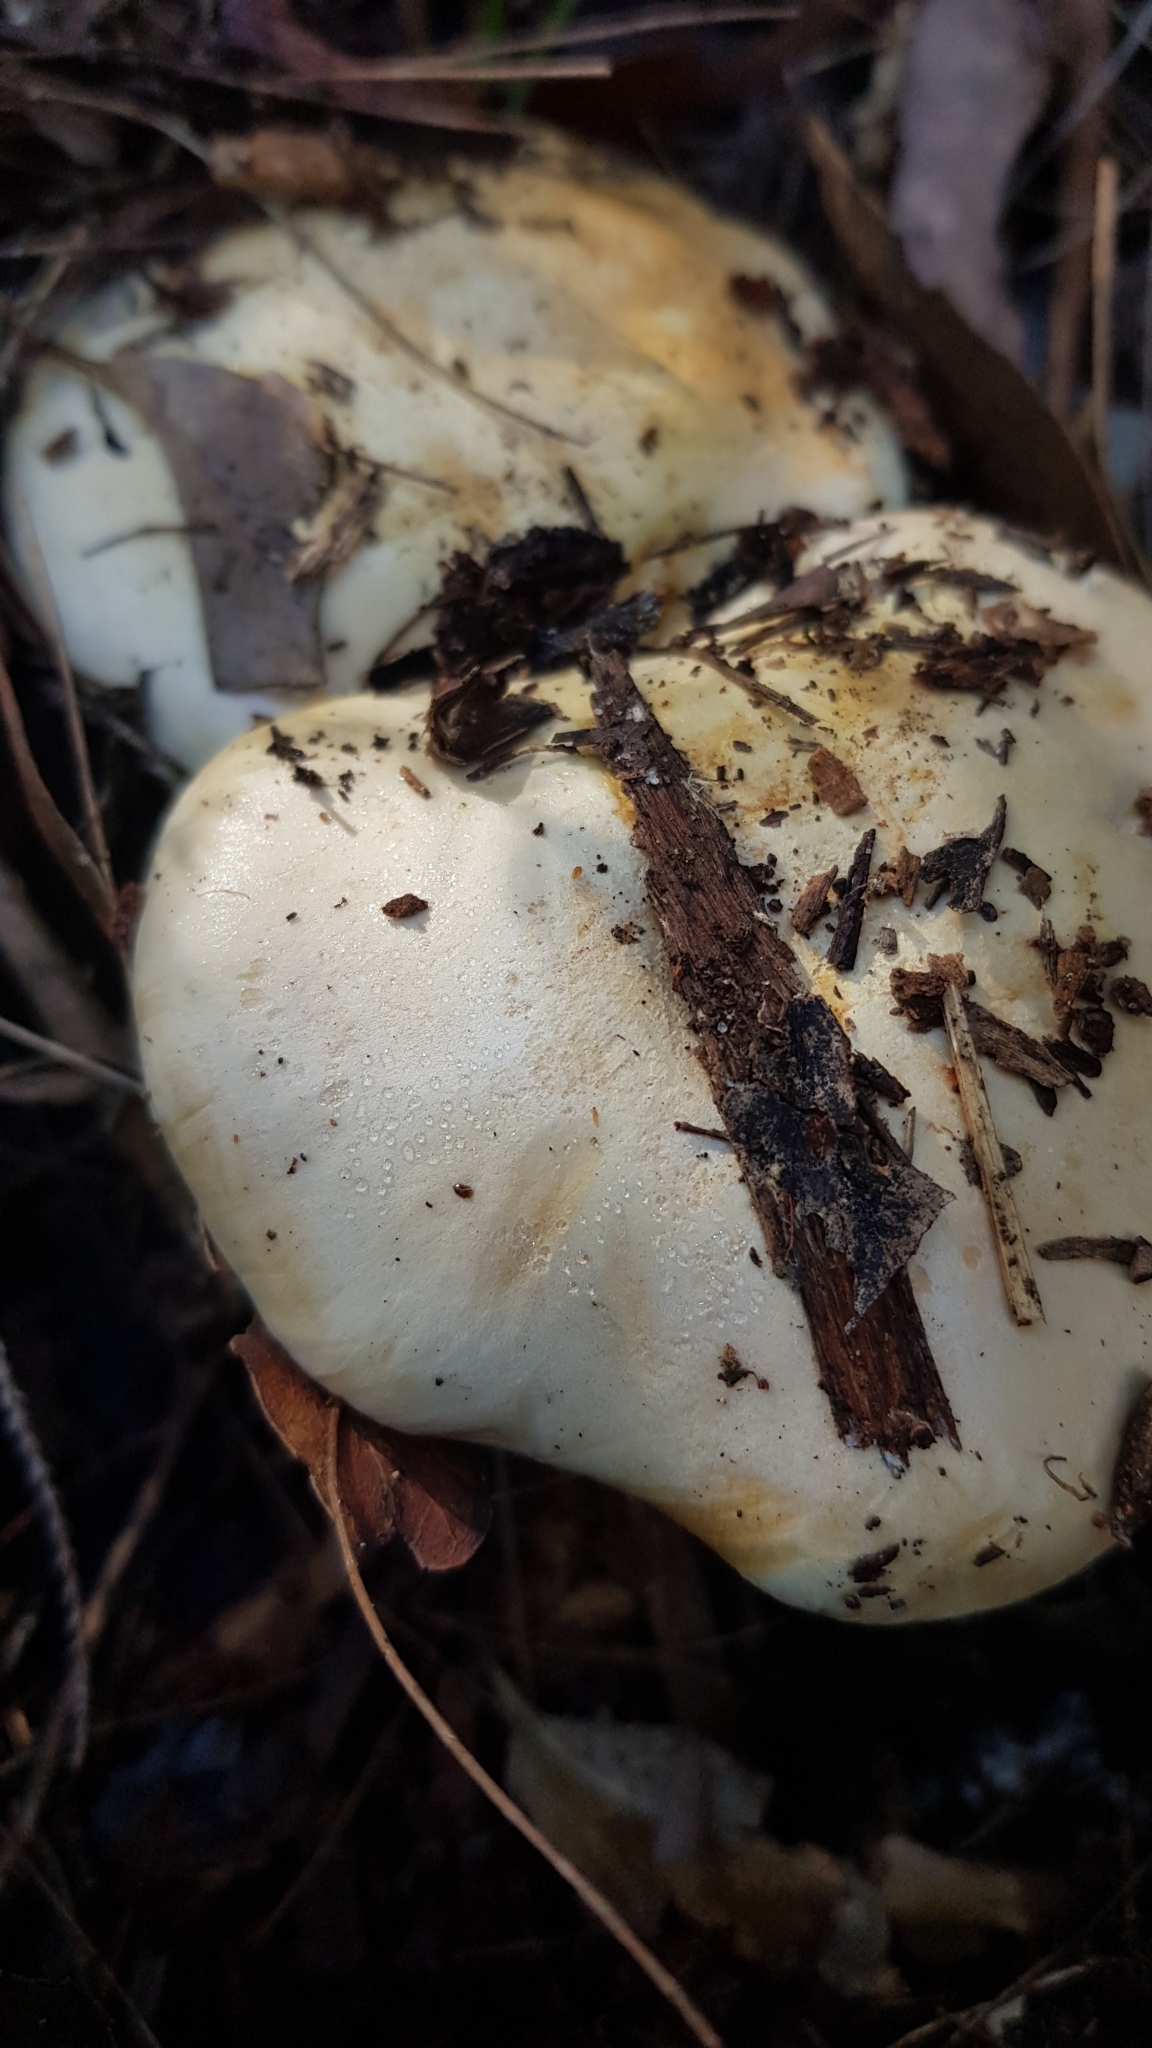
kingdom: Fungi
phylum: Basidiomycota
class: Agaricomycetes
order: Agaricales
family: Cortinariaceae
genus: Phlegmacium
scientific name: Phlegmacium coelopus
